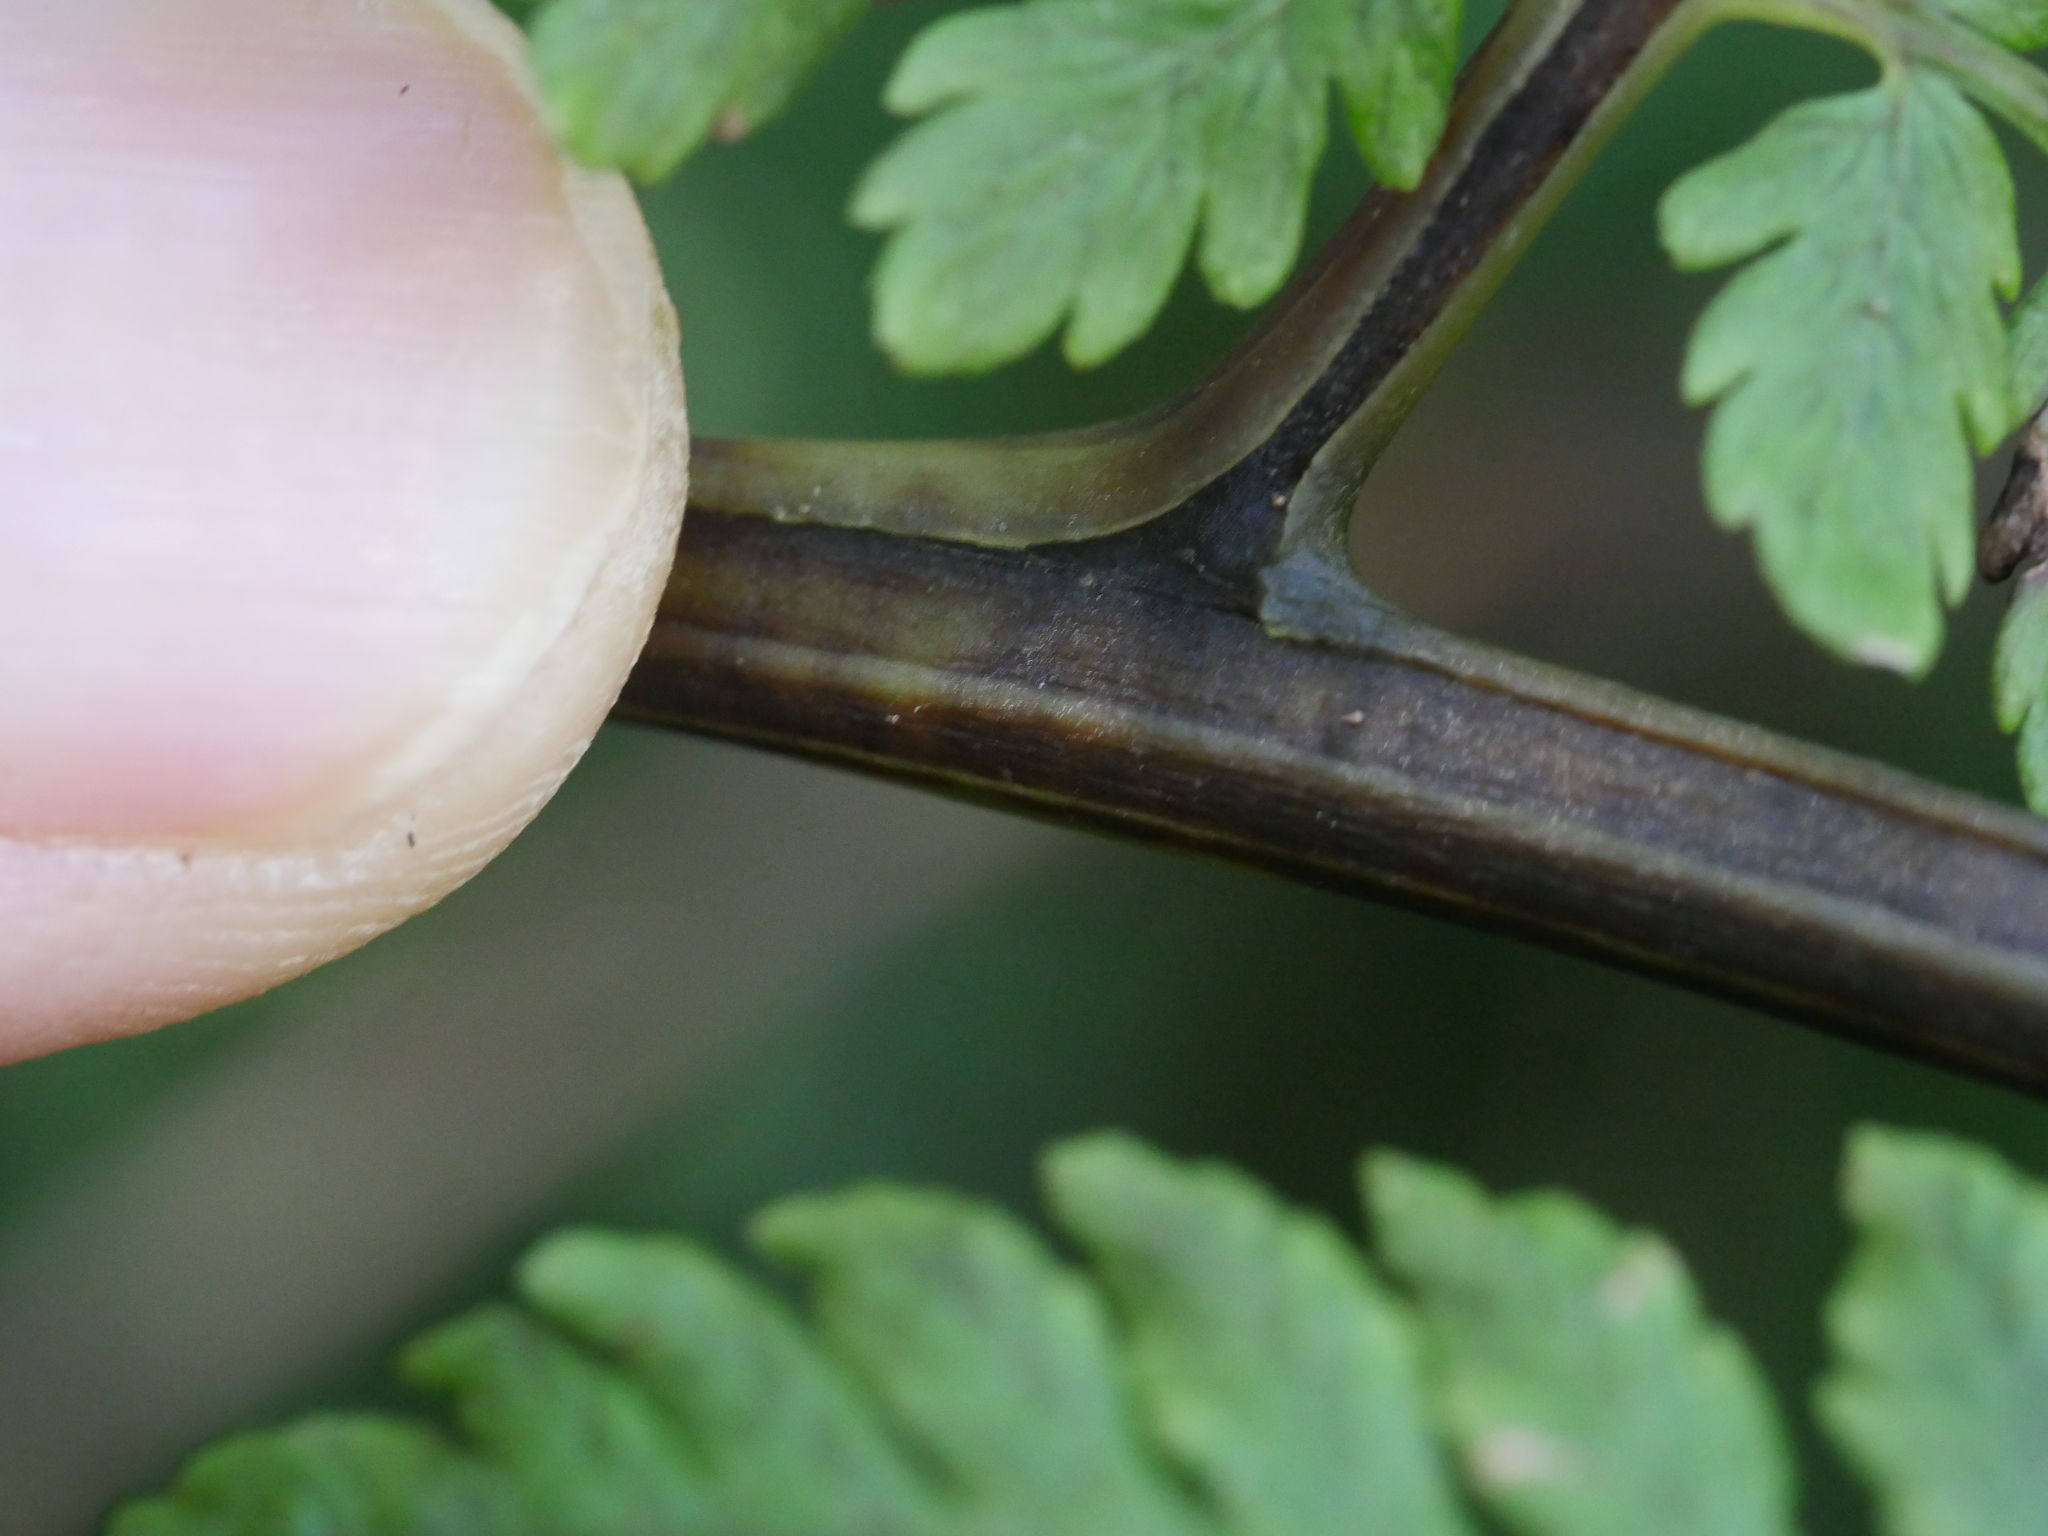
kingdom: Plantae
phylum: Tracheophyta
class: Polypodiopsida
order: Polypodiales
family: Athyriaceae
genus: Diplazium
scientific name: Diplazium australe
